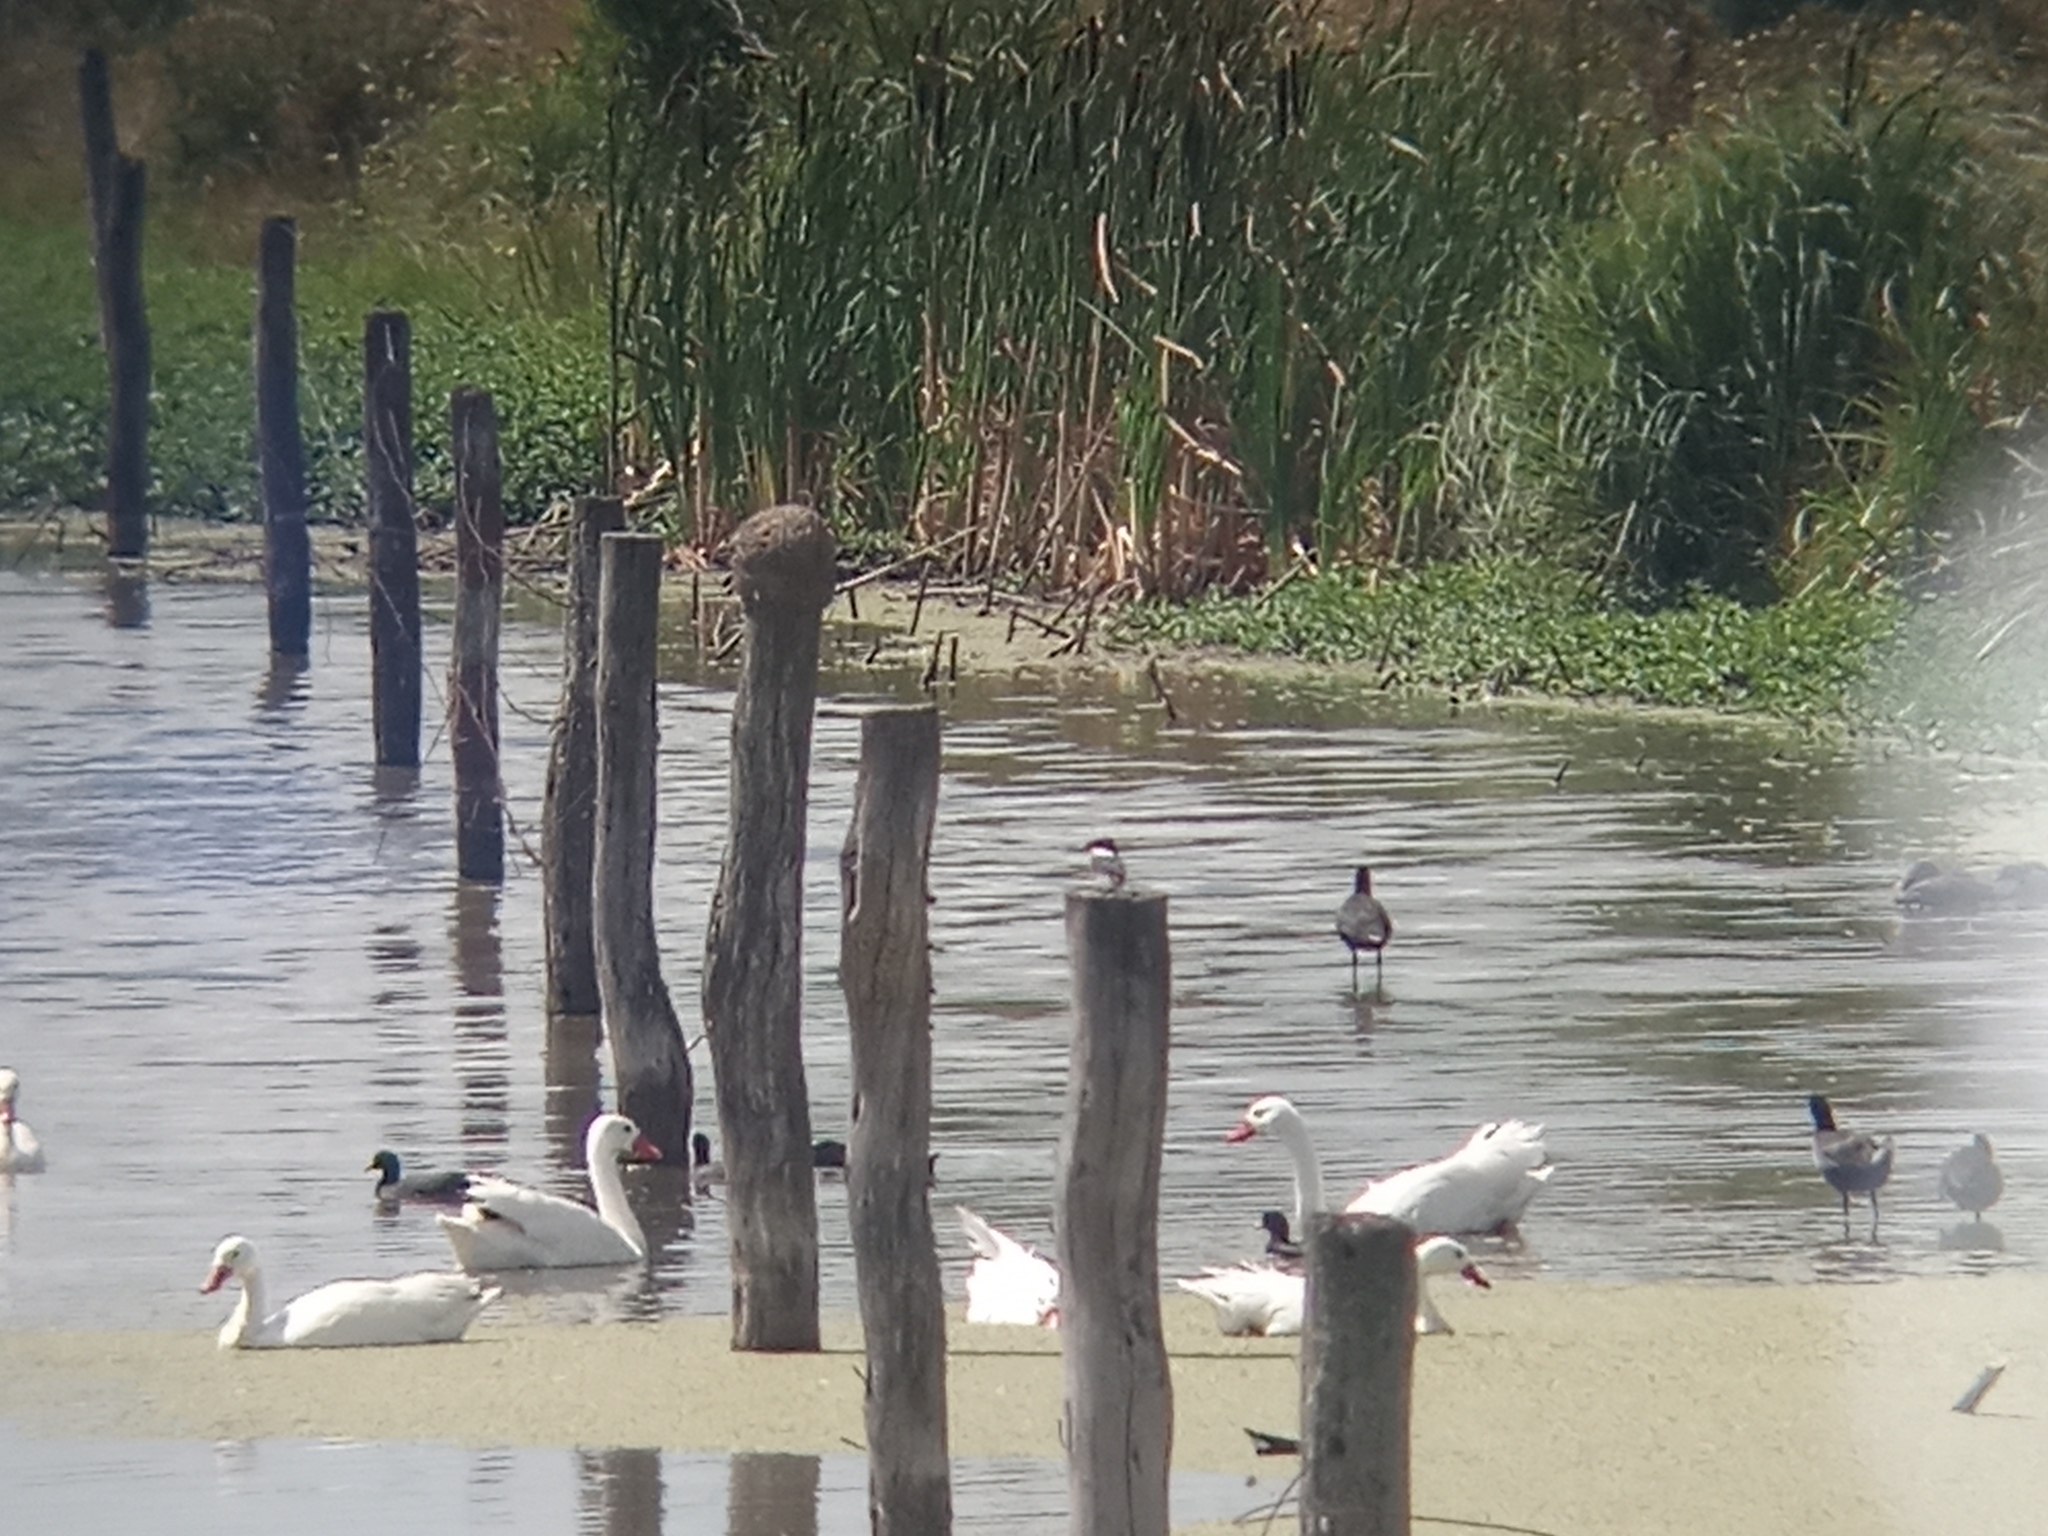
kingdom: Animalia
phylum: Chordata
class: Aves
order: Coraciiformes
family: Alcedinidae
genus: Chloroceryle
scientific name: Chloroceryle americana
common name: Green kingfisher
